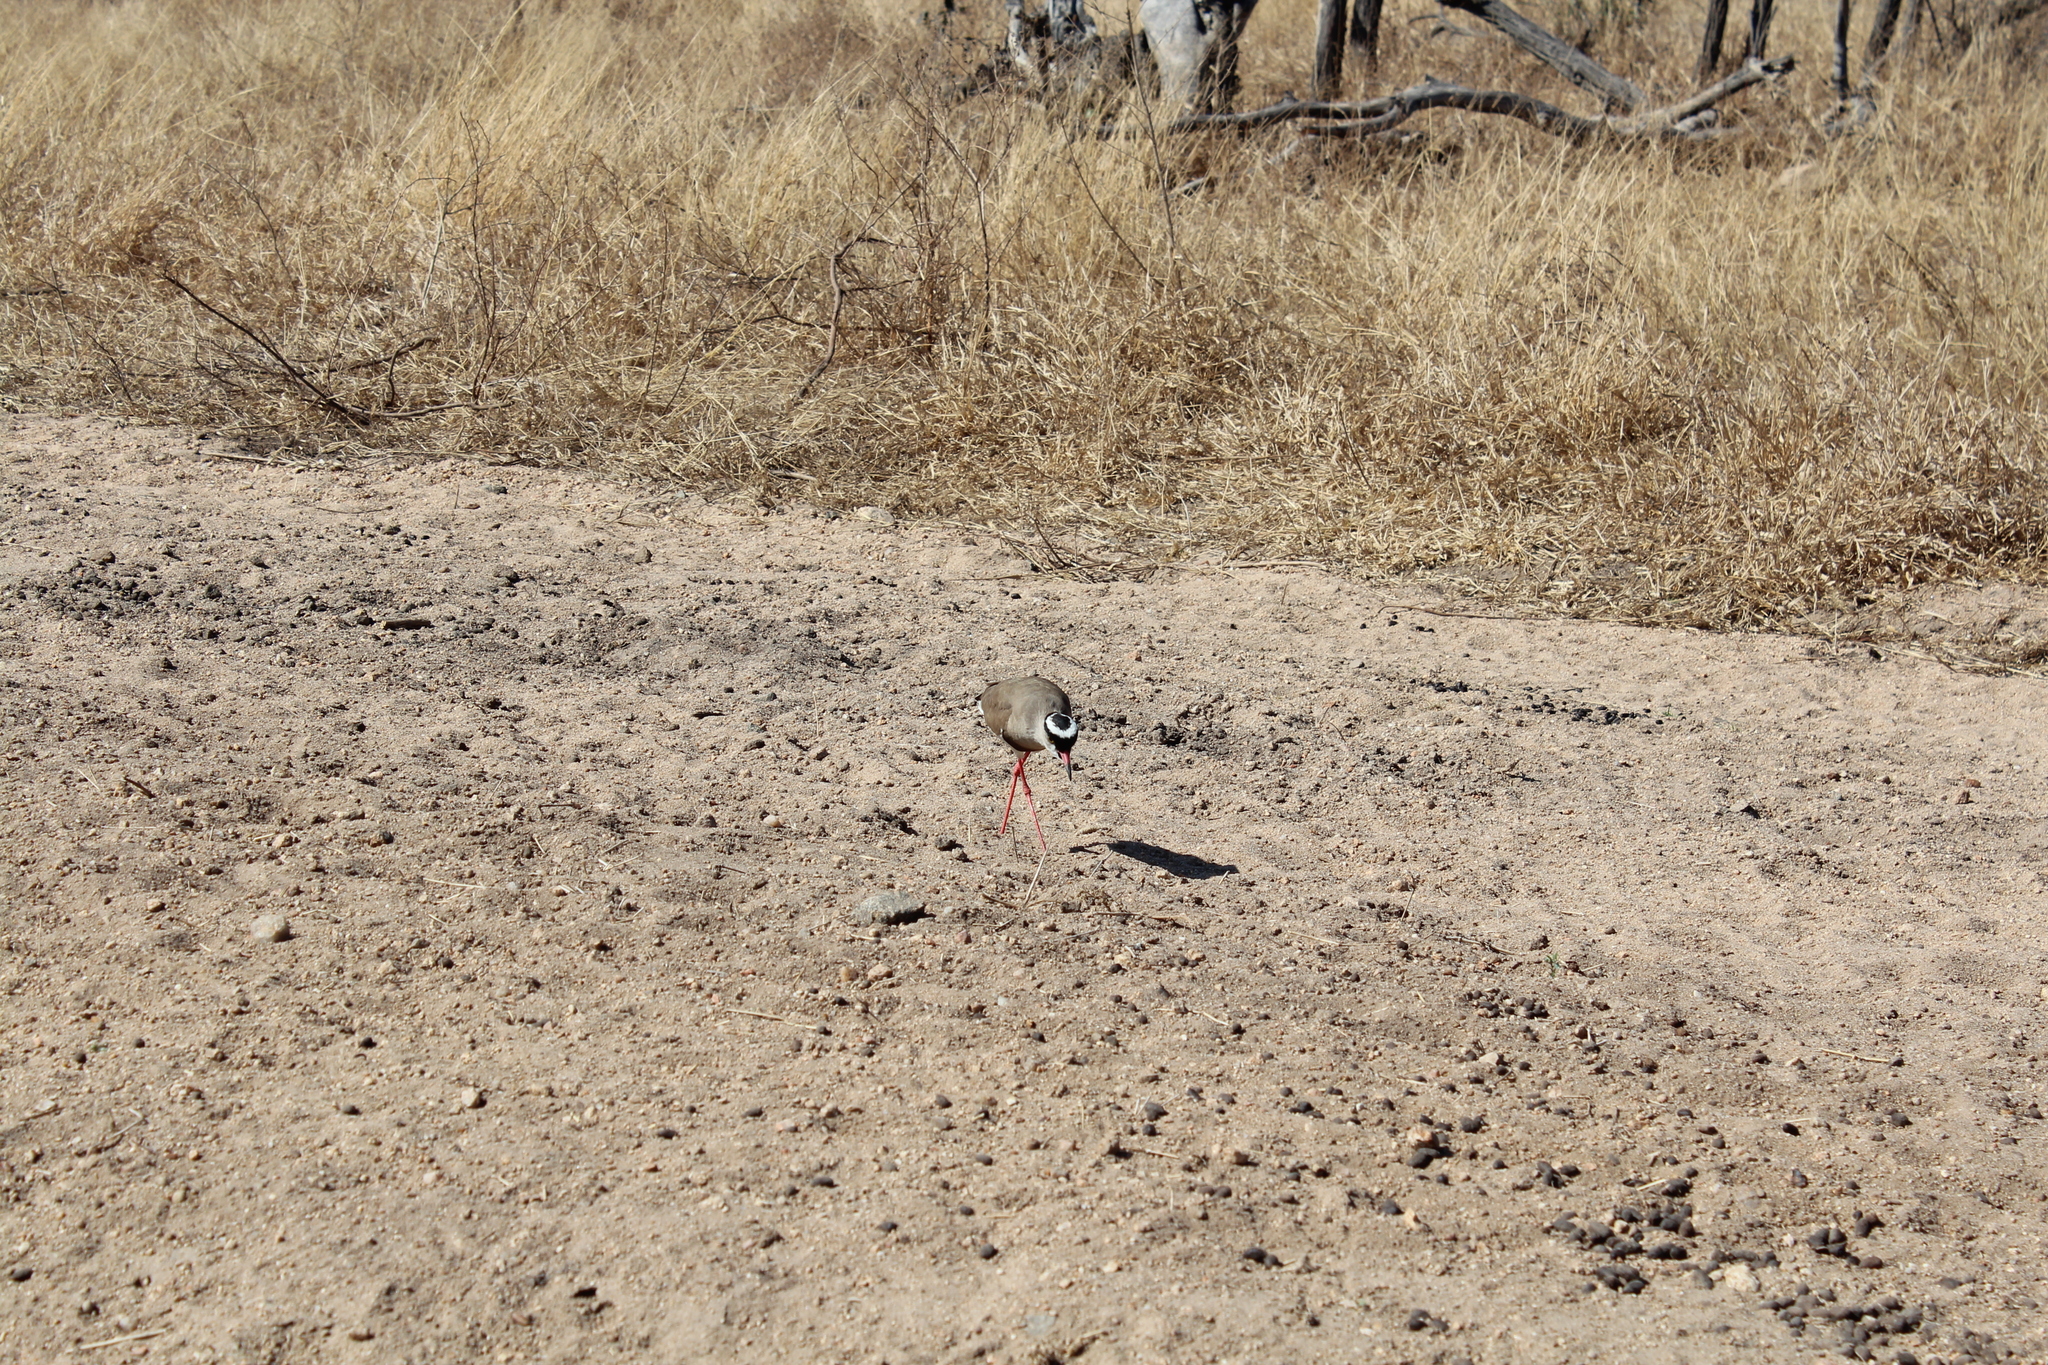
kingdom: Animalia
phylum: Chordata
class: Aves
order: Charadriiformes
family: Charadriidae
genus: Vanellus
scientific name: Vanellus coronatus
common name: Crowned lapwing
